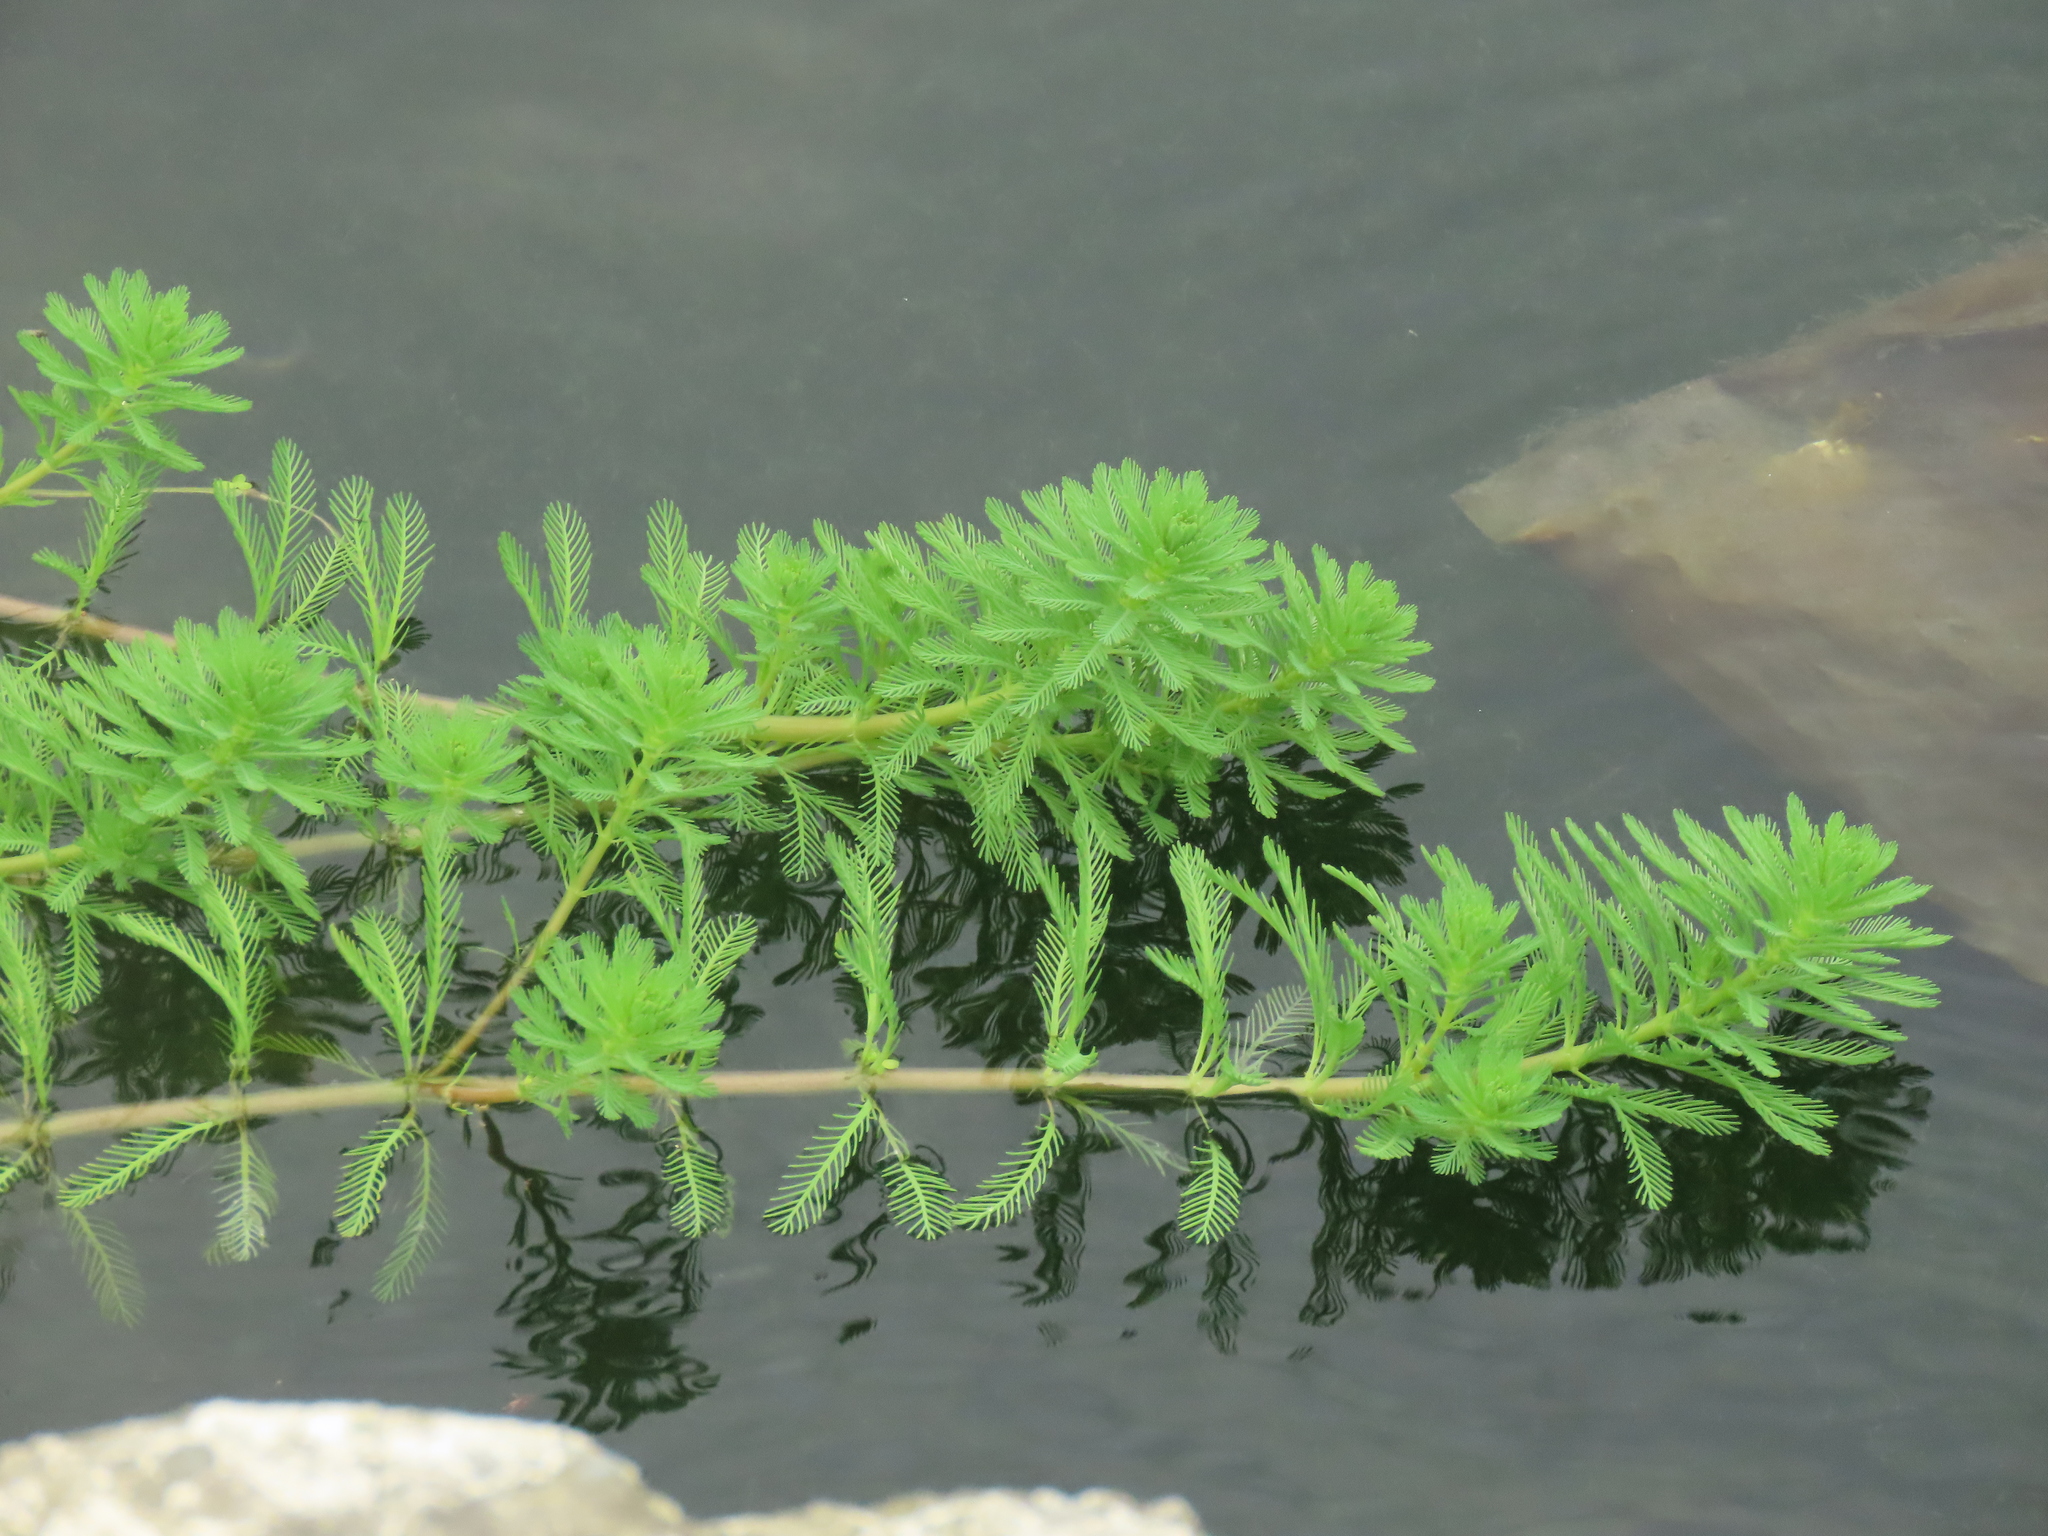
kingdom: Plantae
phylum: Tracheophyta
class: Magnoliopsida
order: Saxifragales
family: Haloragaceae
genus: Myriophyllum
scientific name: Myriophyllum aquaticum
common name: Parrot's feather
